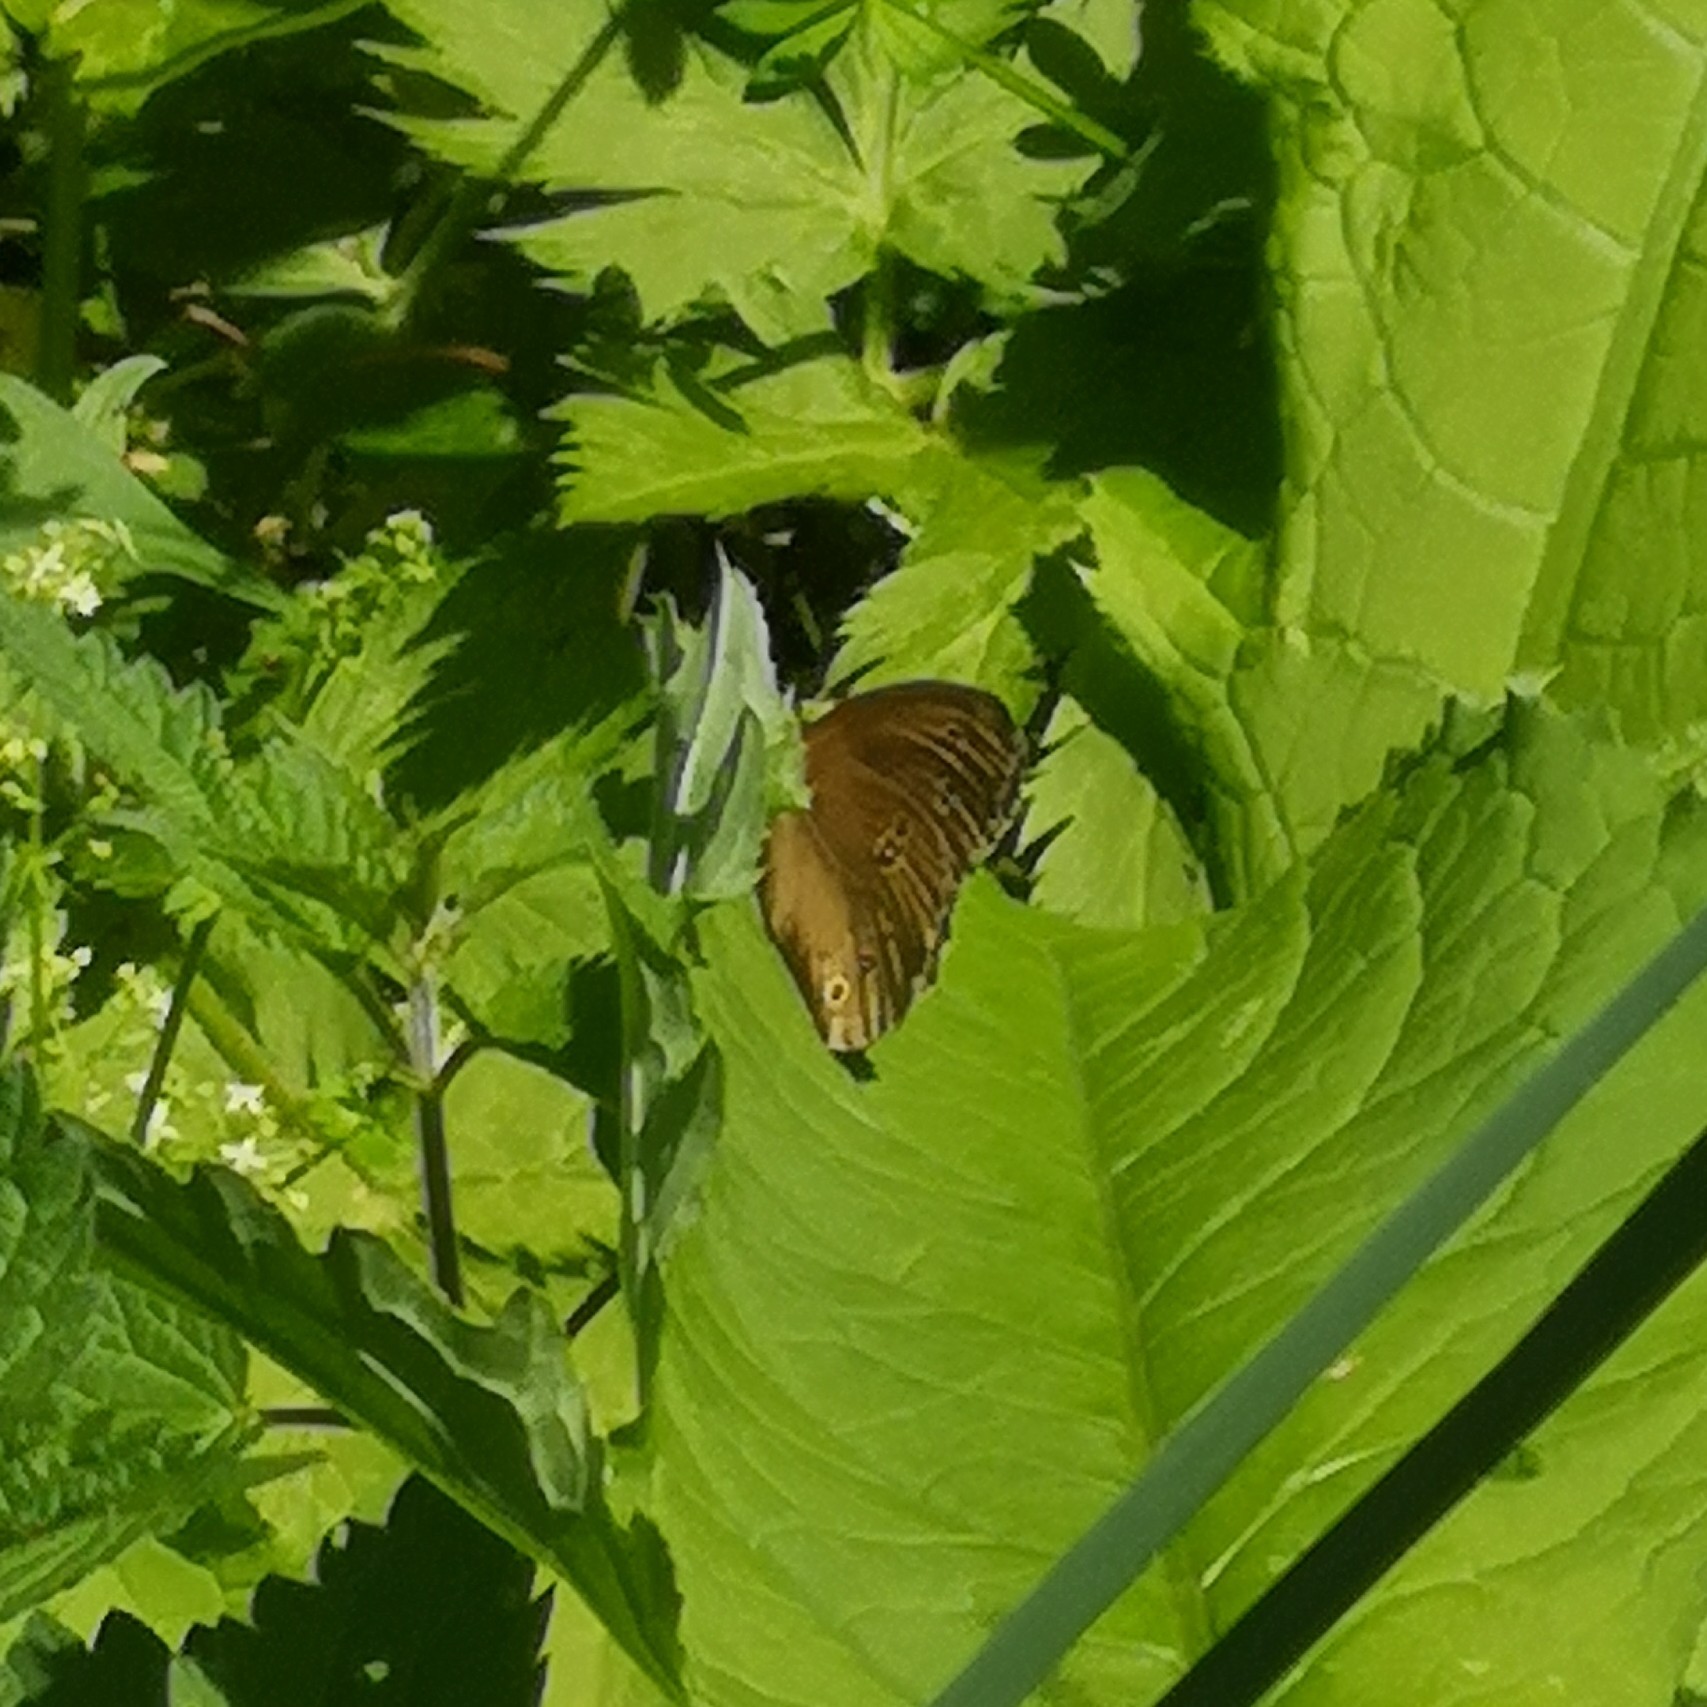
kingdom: Animalia
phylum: Arthropoda
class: Insecta
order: Lepidoptera
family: Nymphalidae
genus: Aphantopus
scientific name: Aphantopus hyperantus
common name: Ringlet
